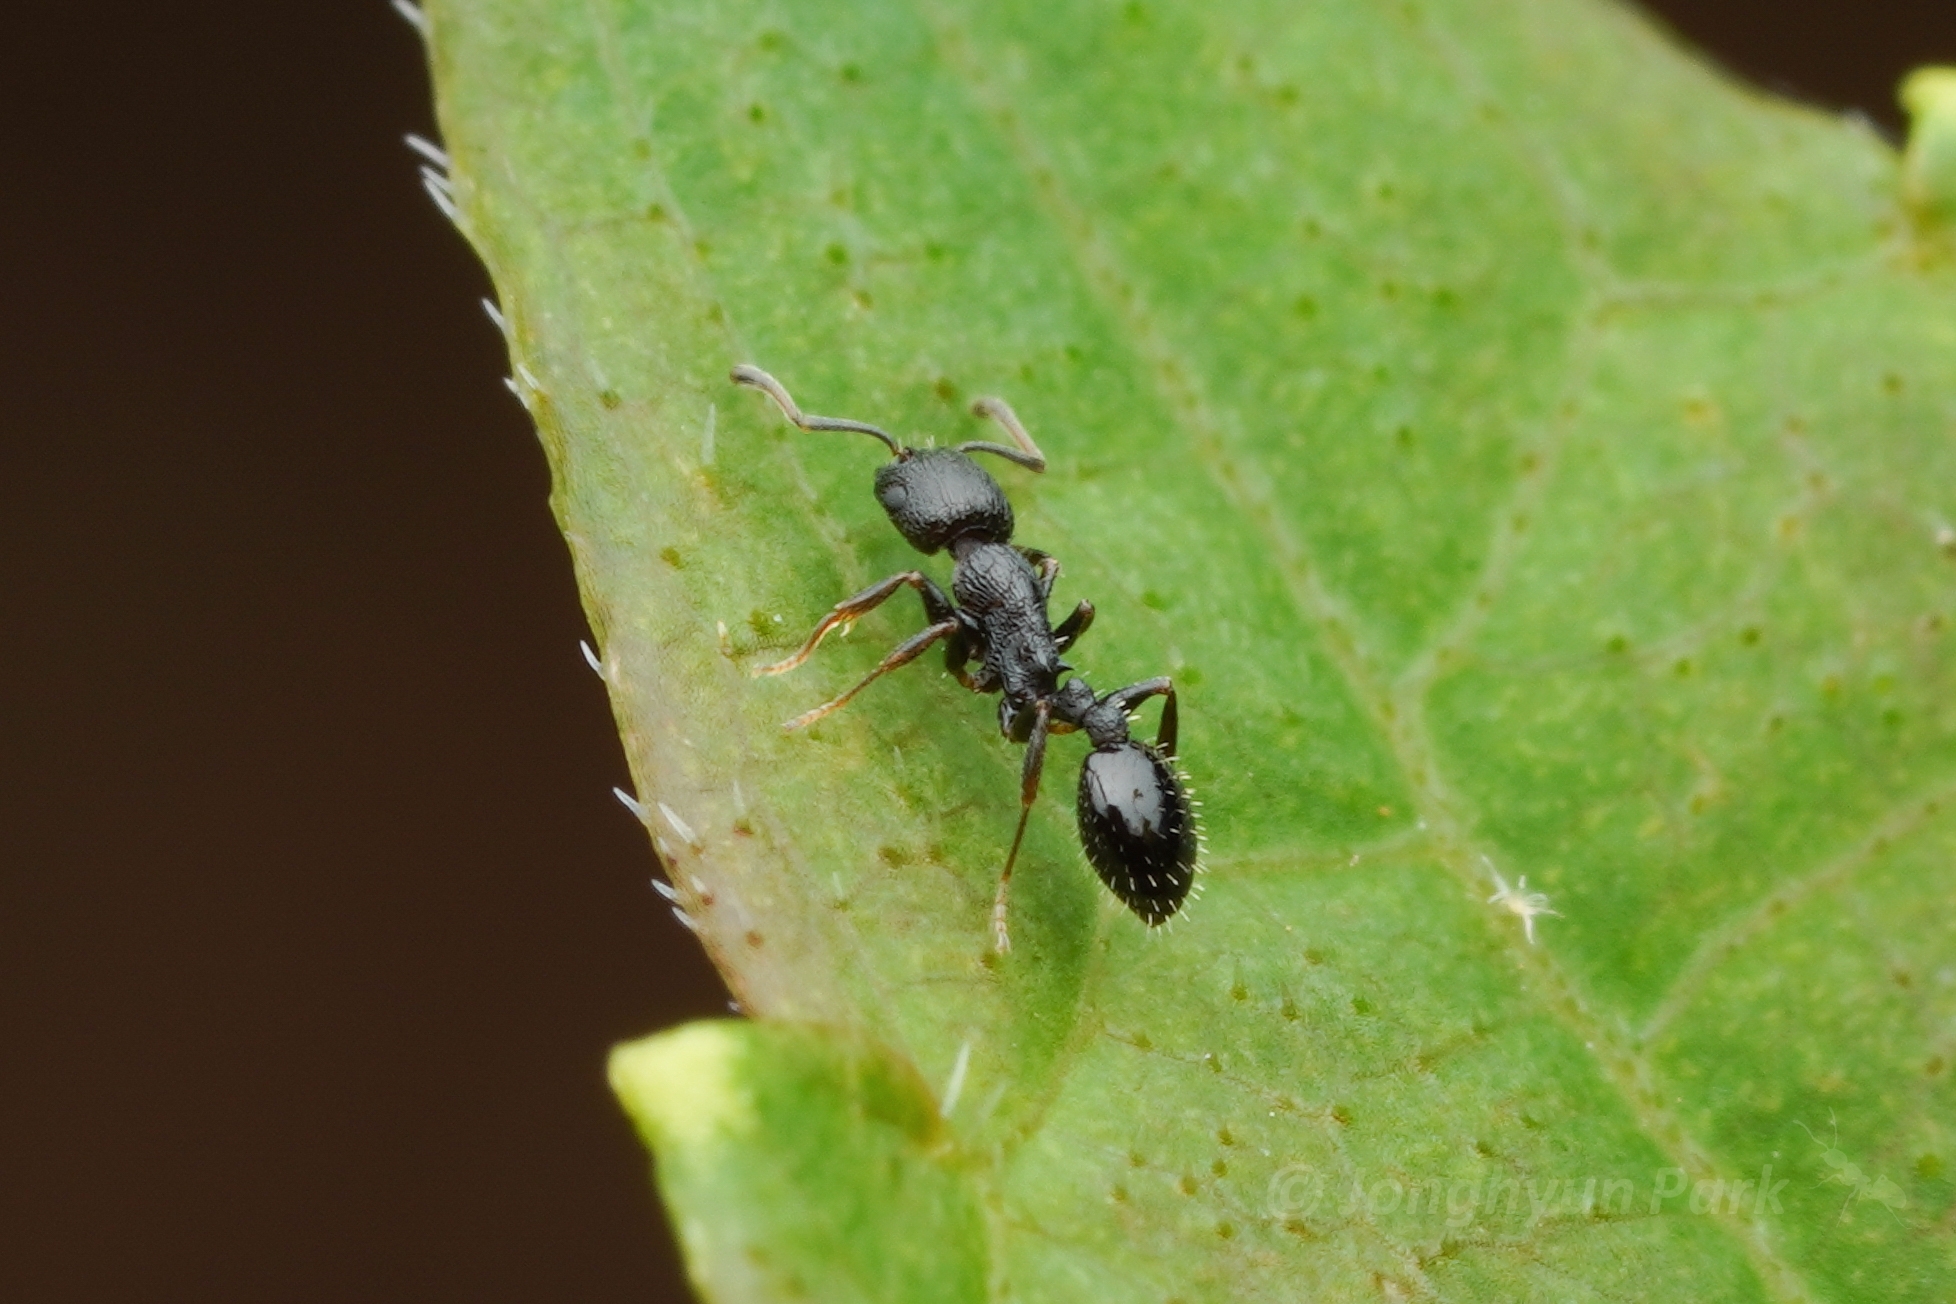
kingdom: Animalia
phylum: Arthropoda
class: Insecta
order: Hymenoptera
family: Formicidae
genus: Temnothorax
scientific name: Temnothorax
